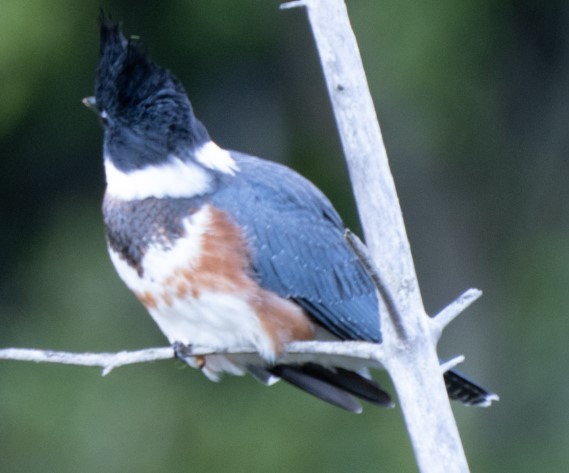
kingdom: Animalia
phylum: Chordata
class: Aves
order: Coraciiformes
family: Alcedinidae
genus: Megaceryle
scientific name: Megaceryle alcyon
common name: Belted kingfisher
